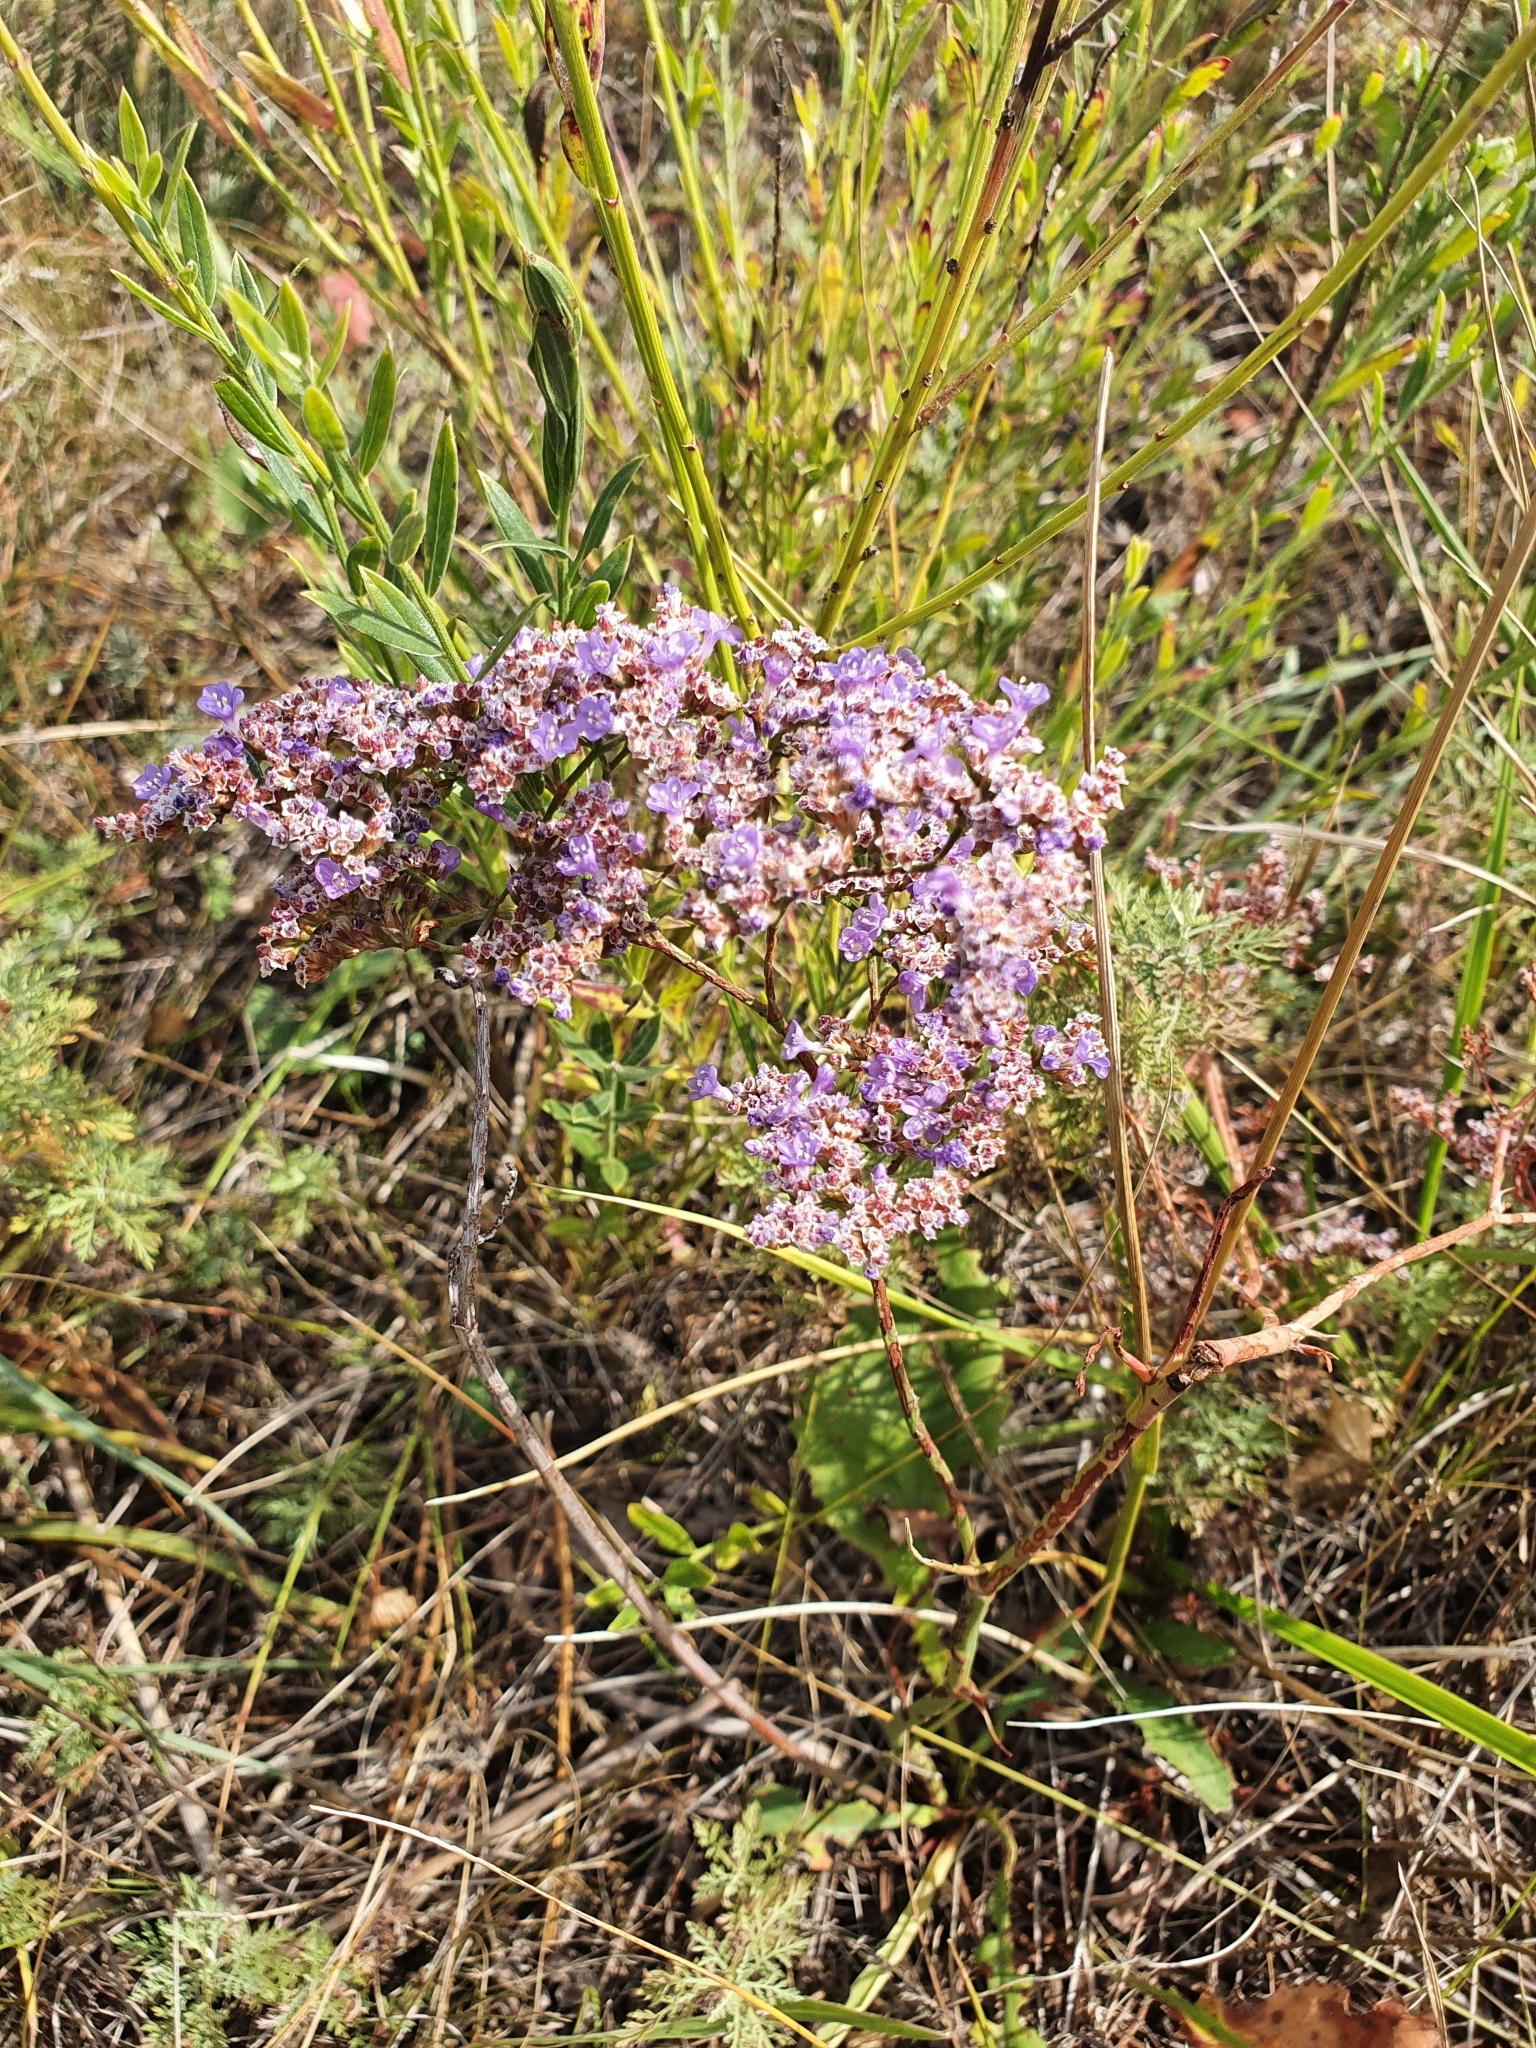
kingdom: Plantae
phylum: Tracheophyta
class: Magnoliopsida
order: Caryophyllales
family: Plumbaginaceae
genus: Limonium
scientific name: Limonium gmelini
